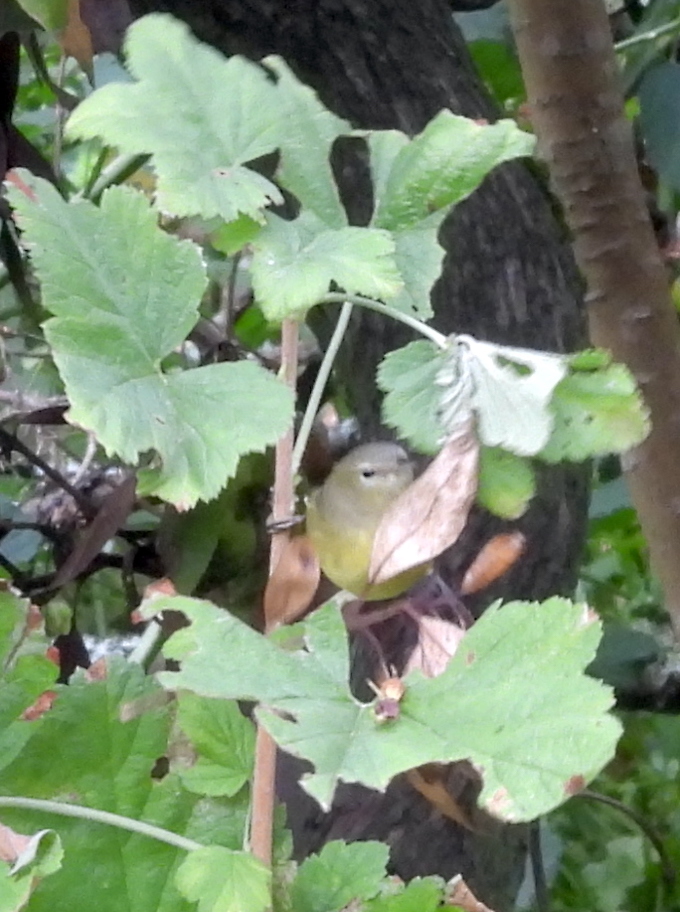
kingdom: Animalia
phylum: Chordata
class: Aves
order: Passeriformes
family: Parulidae
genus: Leiothlypis
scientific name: Leiothlypis celata
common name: Orange-crowned warbler
